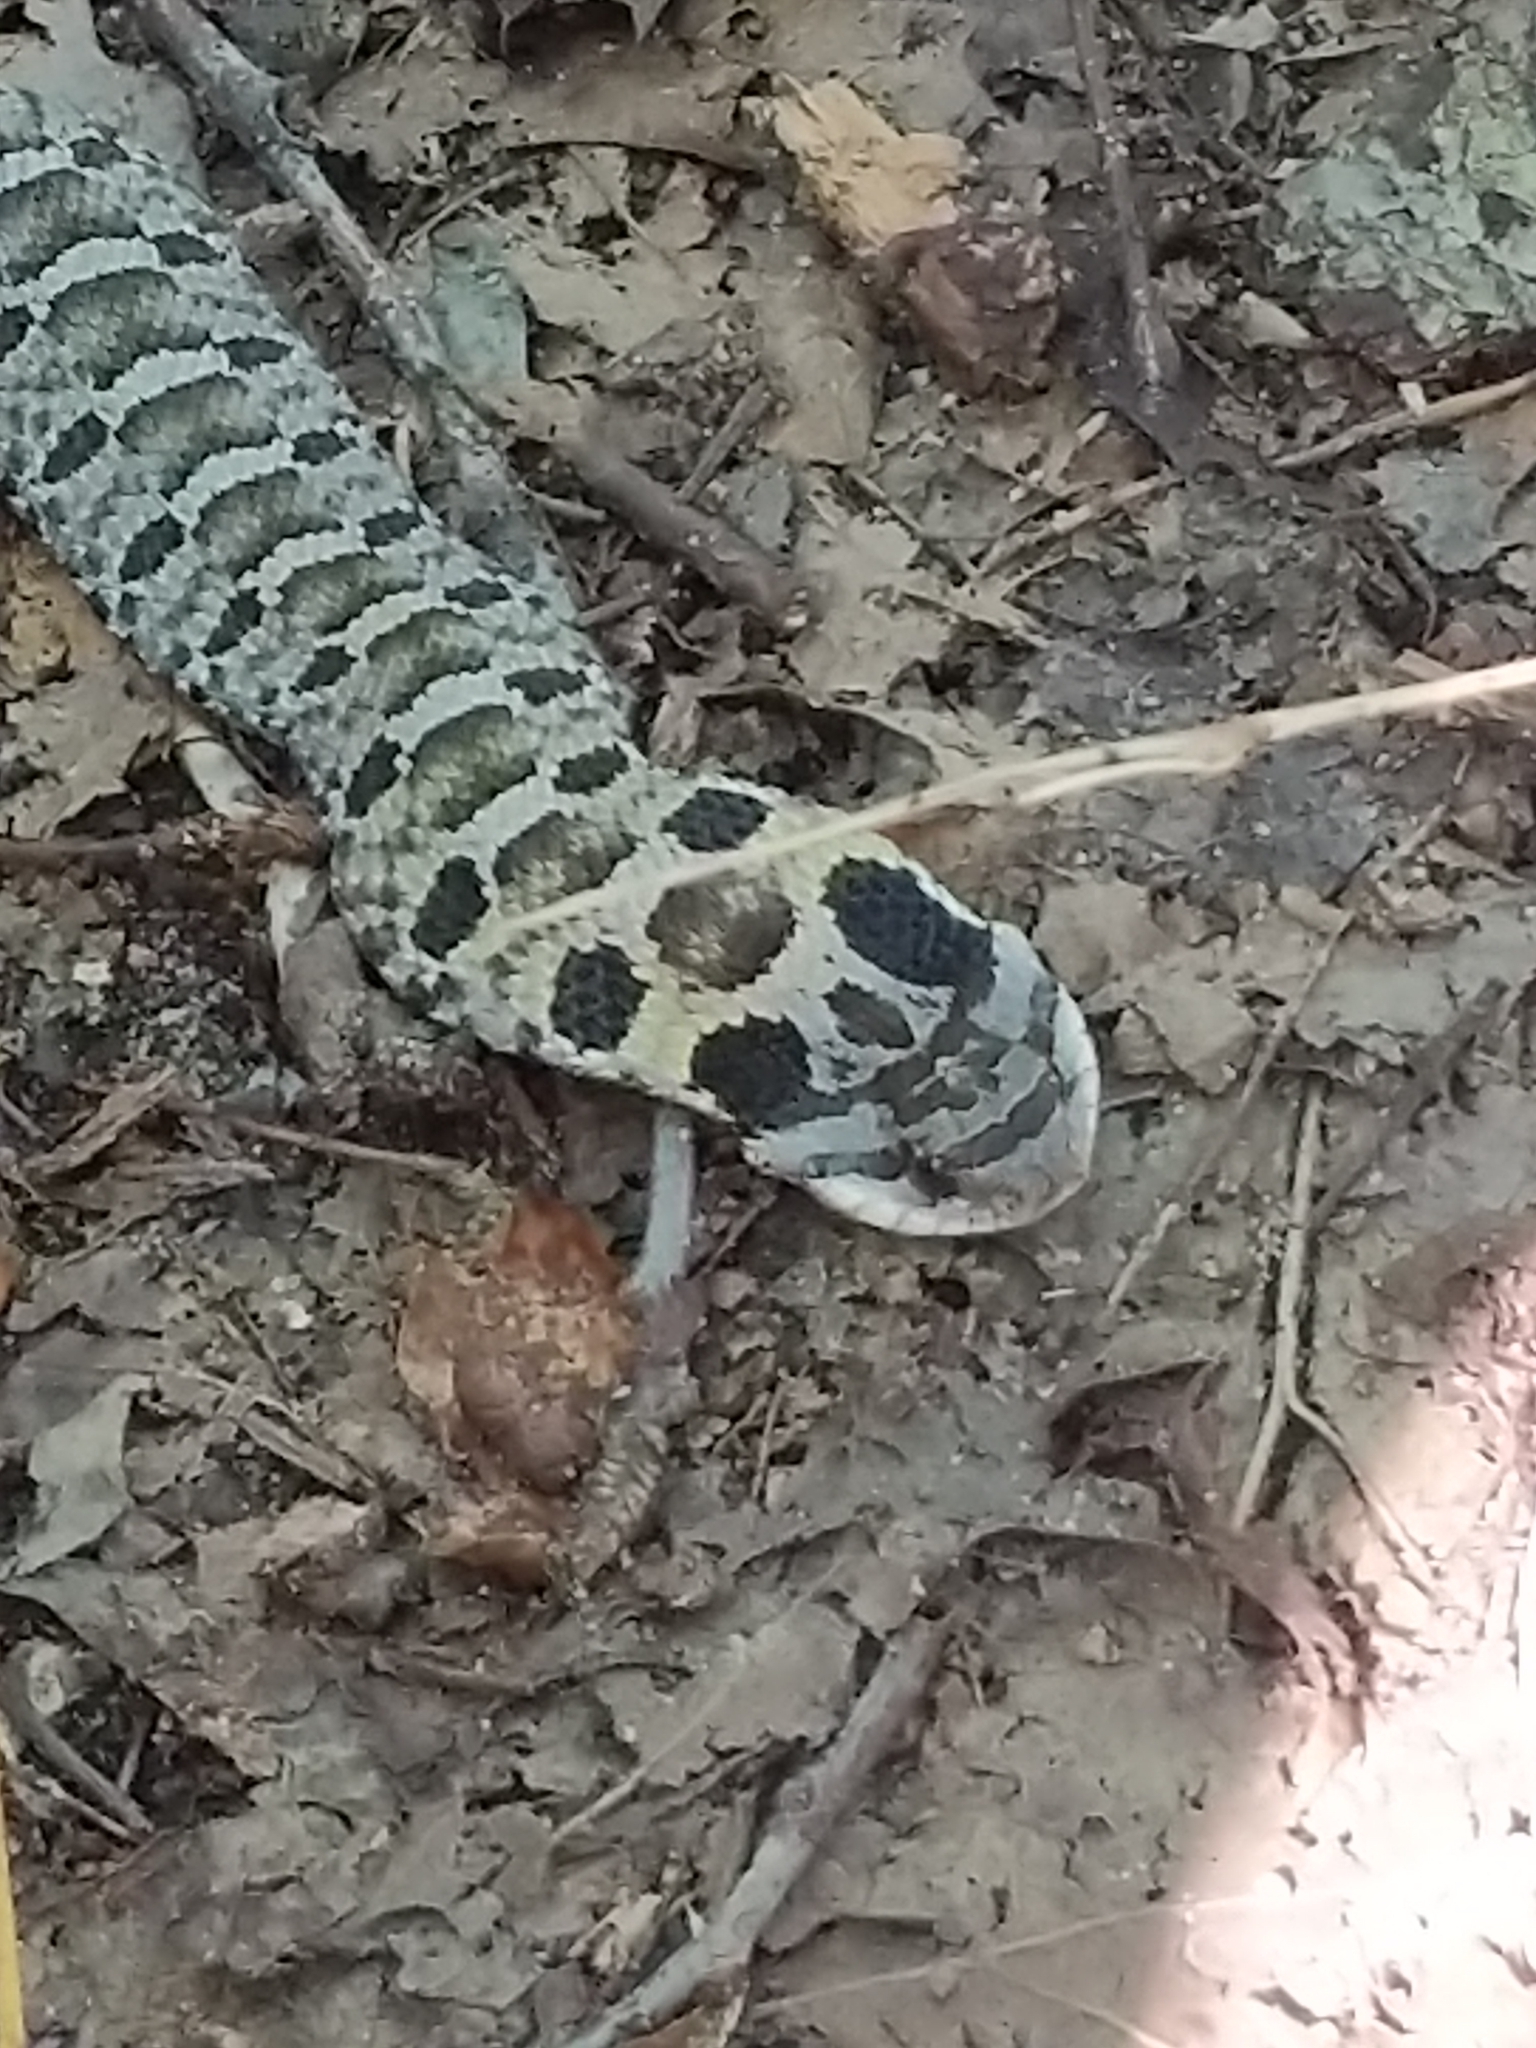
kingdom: Animalia
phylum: Chordata
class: Squamata
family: Colubridae
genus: Heterodon
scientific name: Heterodon platirhinos
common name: Eastern hognose snake
